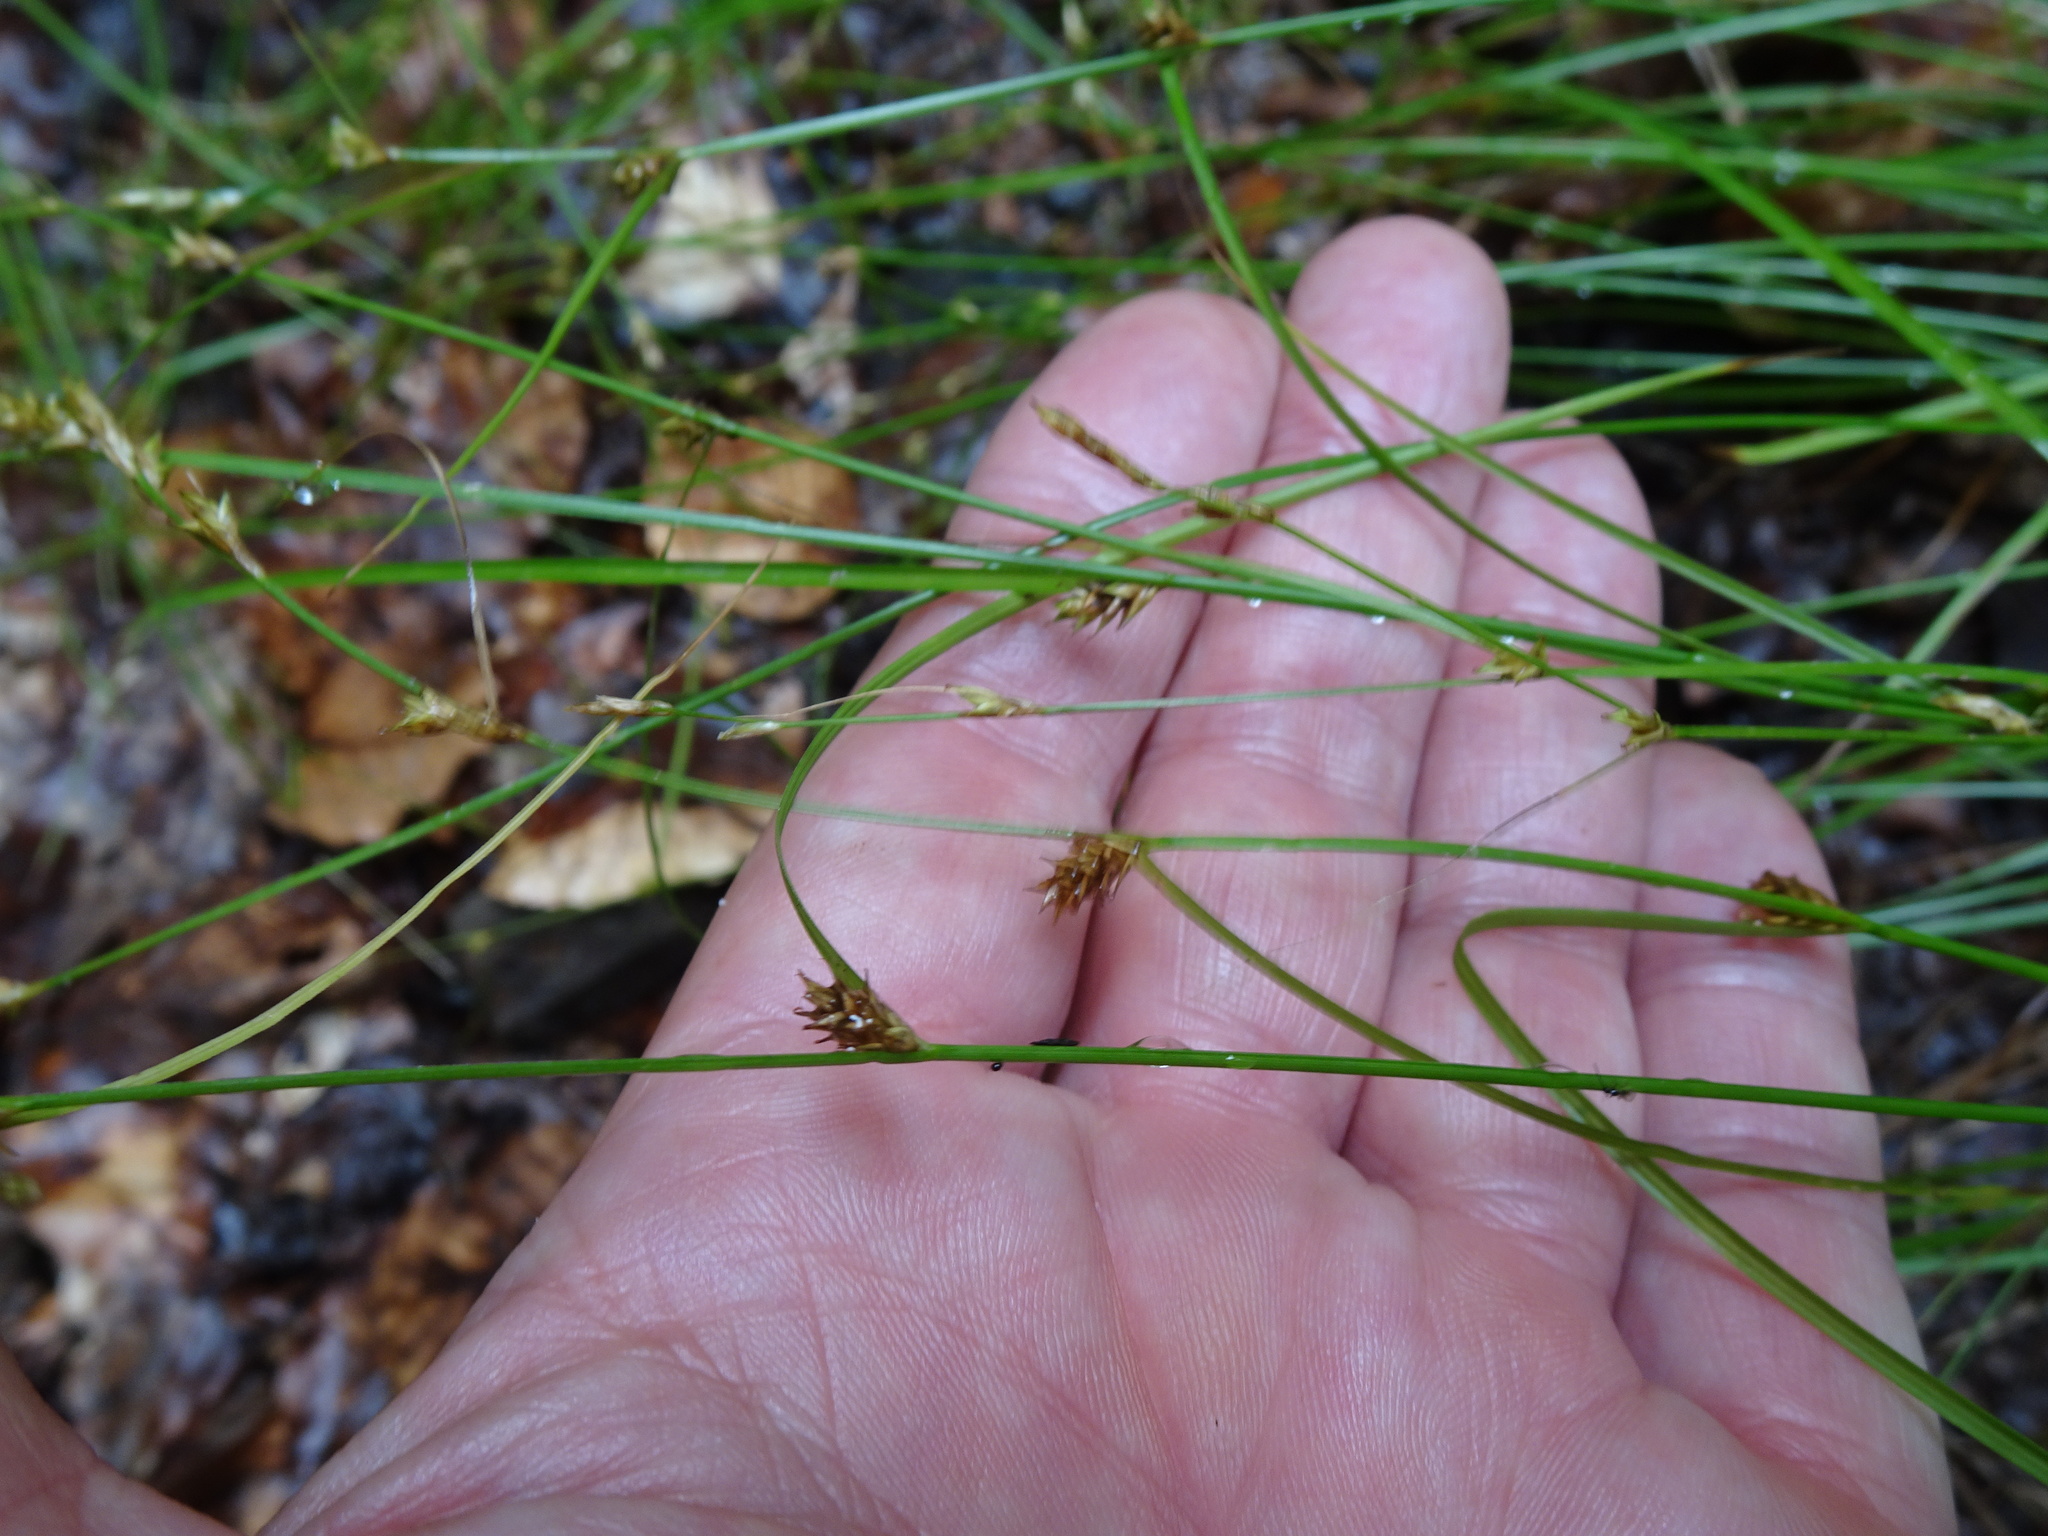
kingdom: Plantae
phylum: Tracheophyta
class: Liliopsida
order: Poales
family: Cyperaceae
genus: Carex
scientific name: Carex remota
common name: Remote sedge
